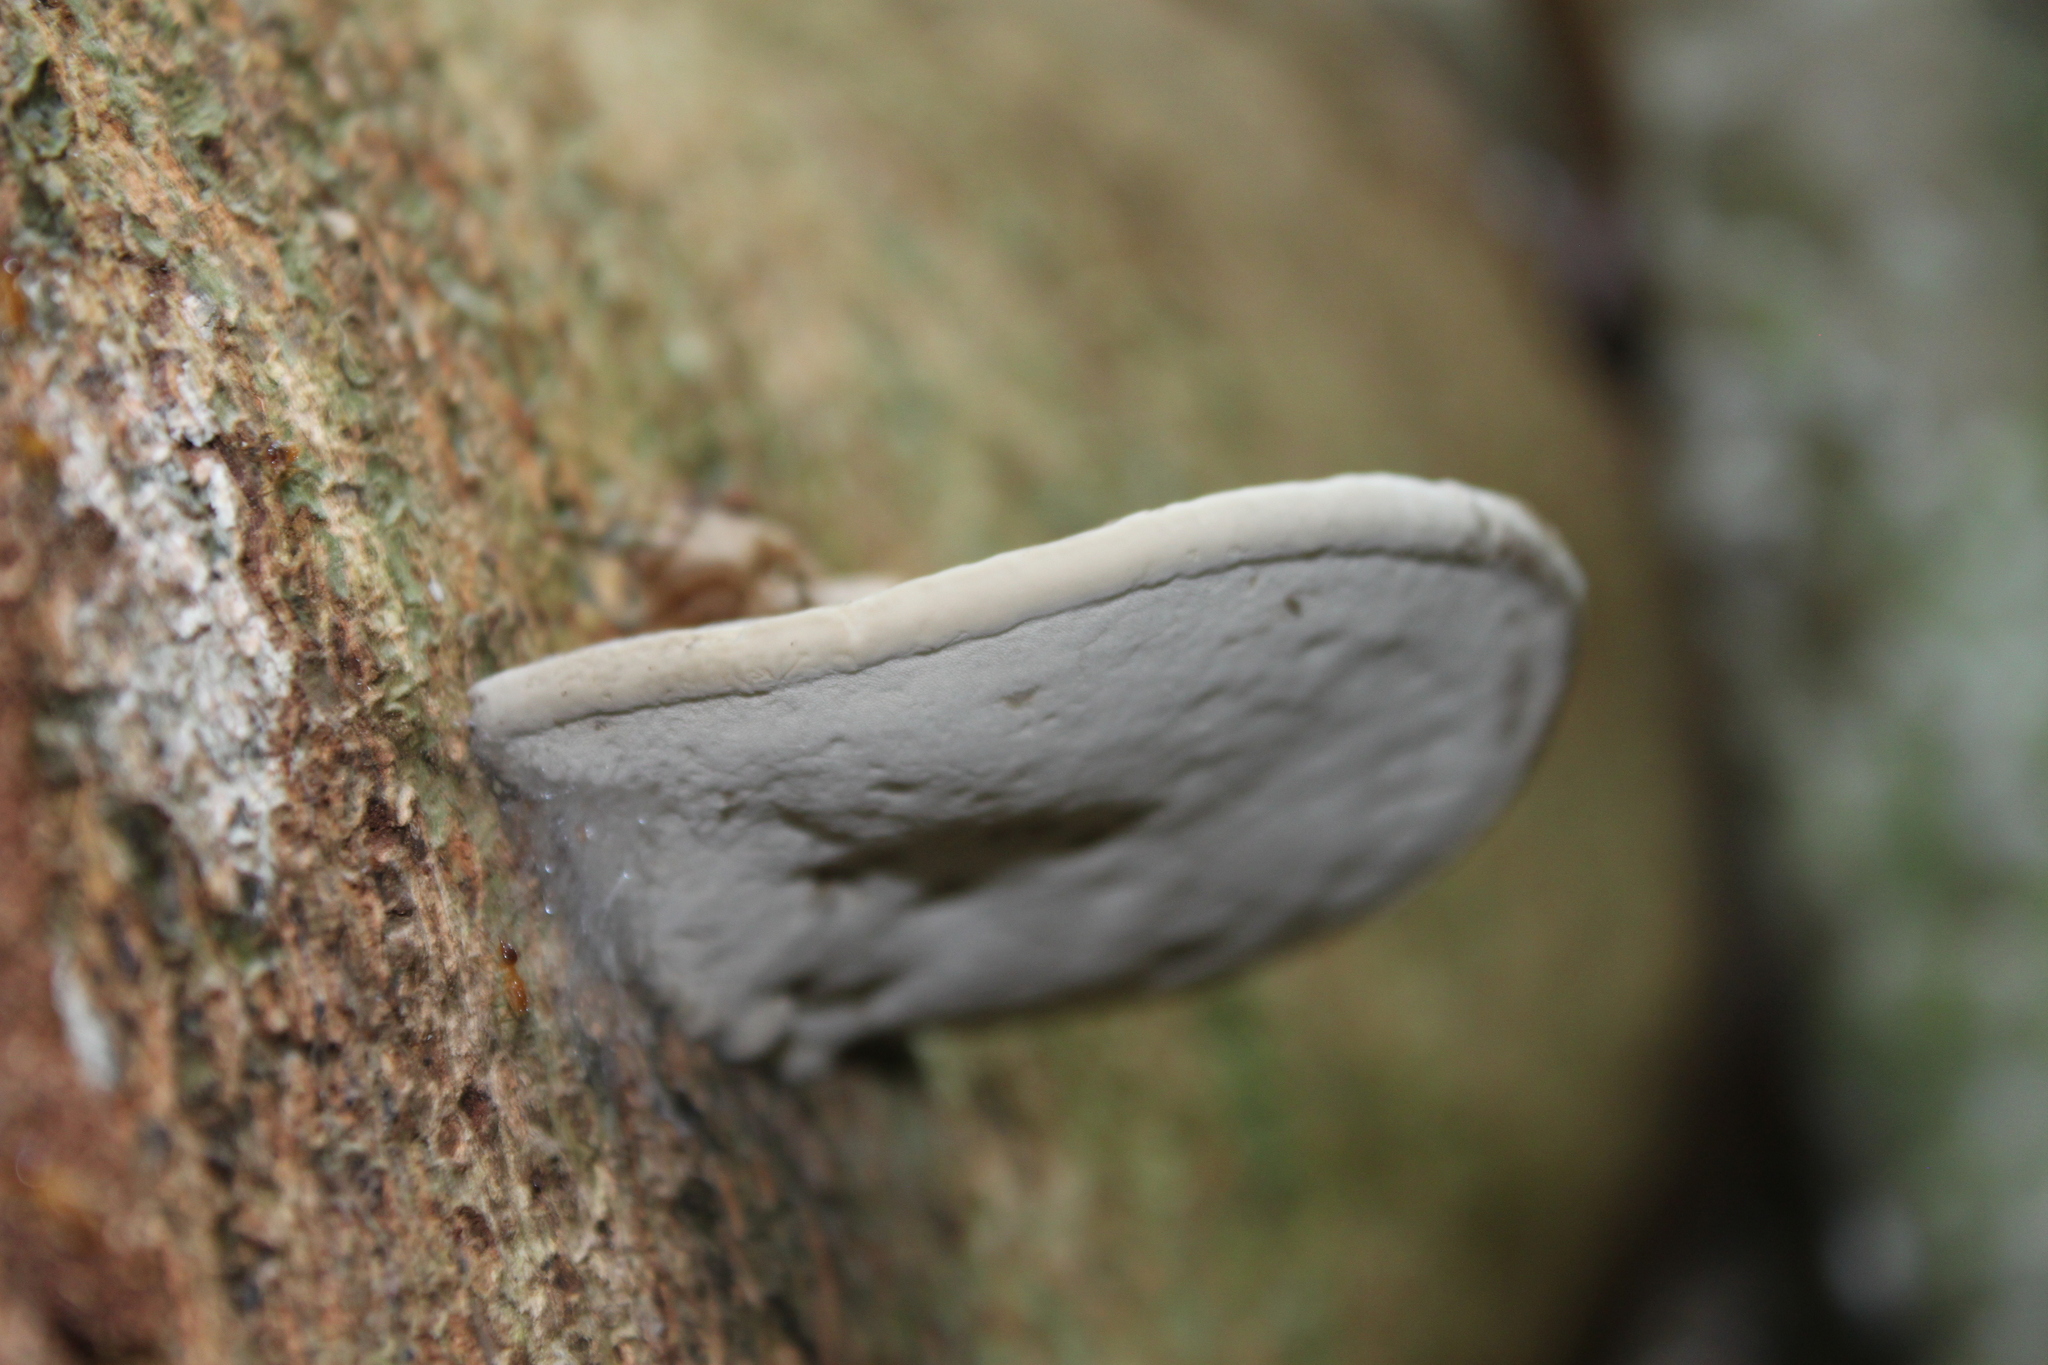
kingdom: Fungi
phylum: Basidiomycota
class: Agaricomycetes
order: Polyporales
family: Polyporaceae
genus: Ganoderma
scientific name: Ganoderma applanatum
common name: Artist's bracket
